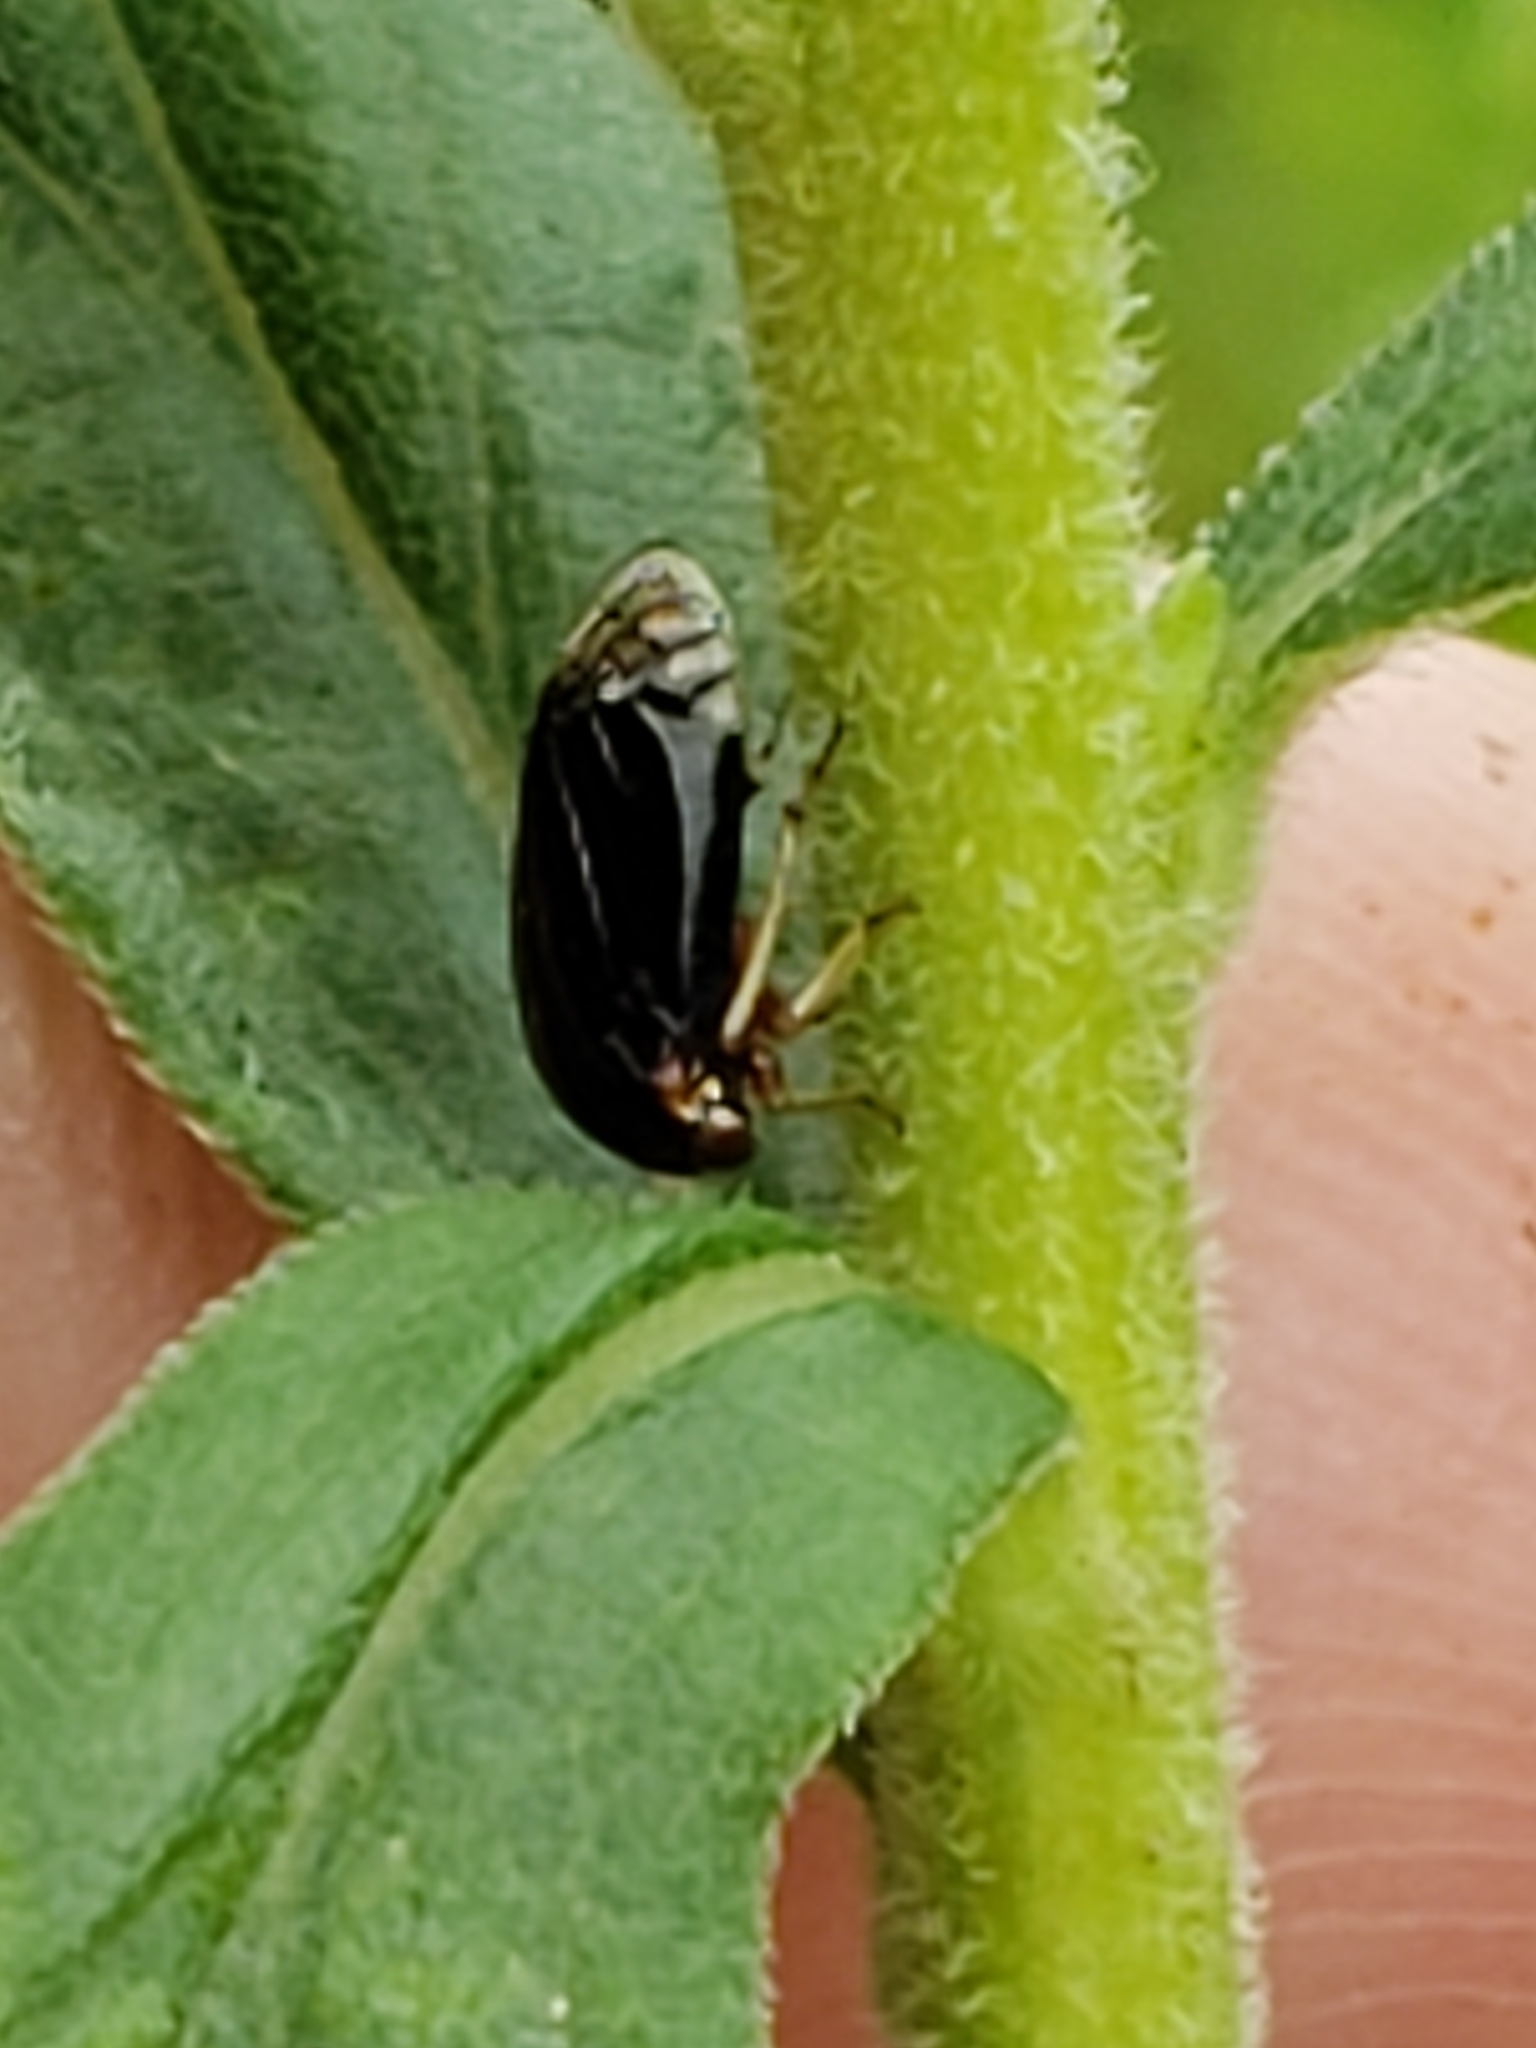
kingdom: Animalia
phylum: Arthropoda
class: Insecta
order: Hemiptera
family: Membracidae
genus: Acutalis
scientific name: Acutalis tartarea
